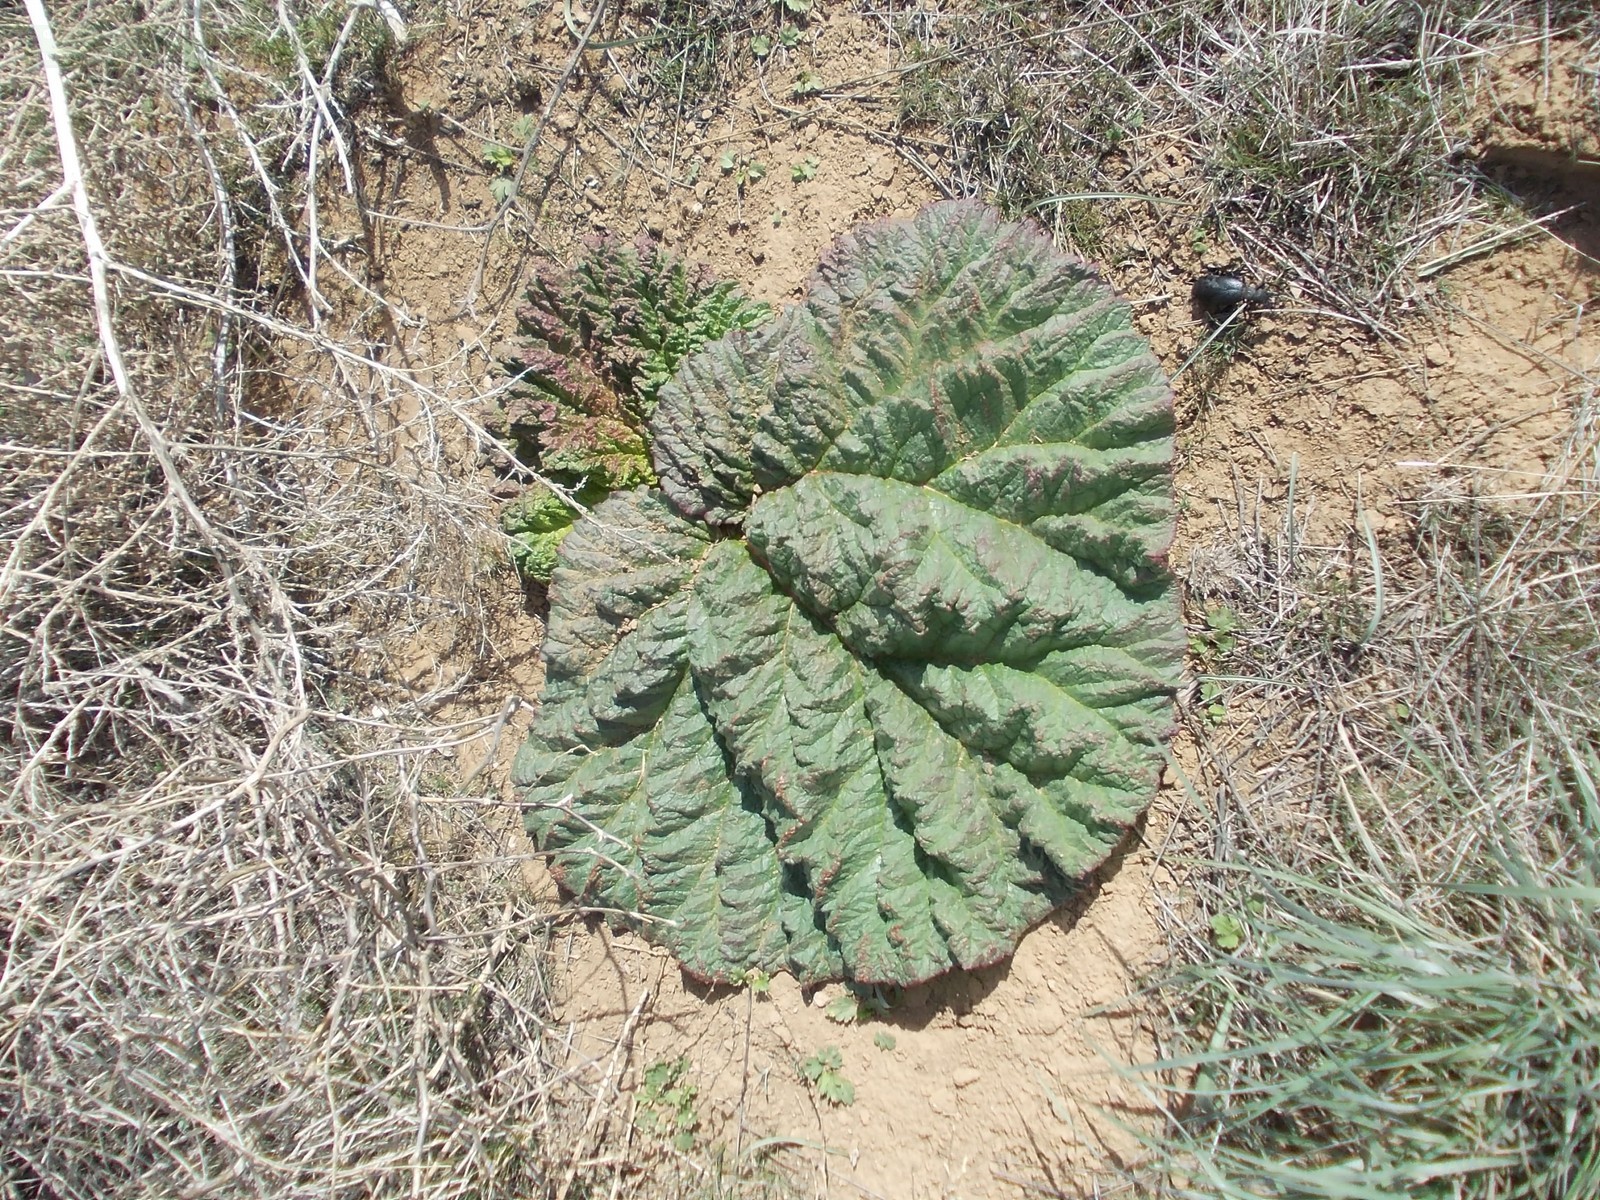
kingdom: Plantae
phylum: Tracheophyta
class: Magnoliopsida
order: Caryophyllales
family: Polygonaceae
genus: Rheum
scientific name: Rheum tataricum
